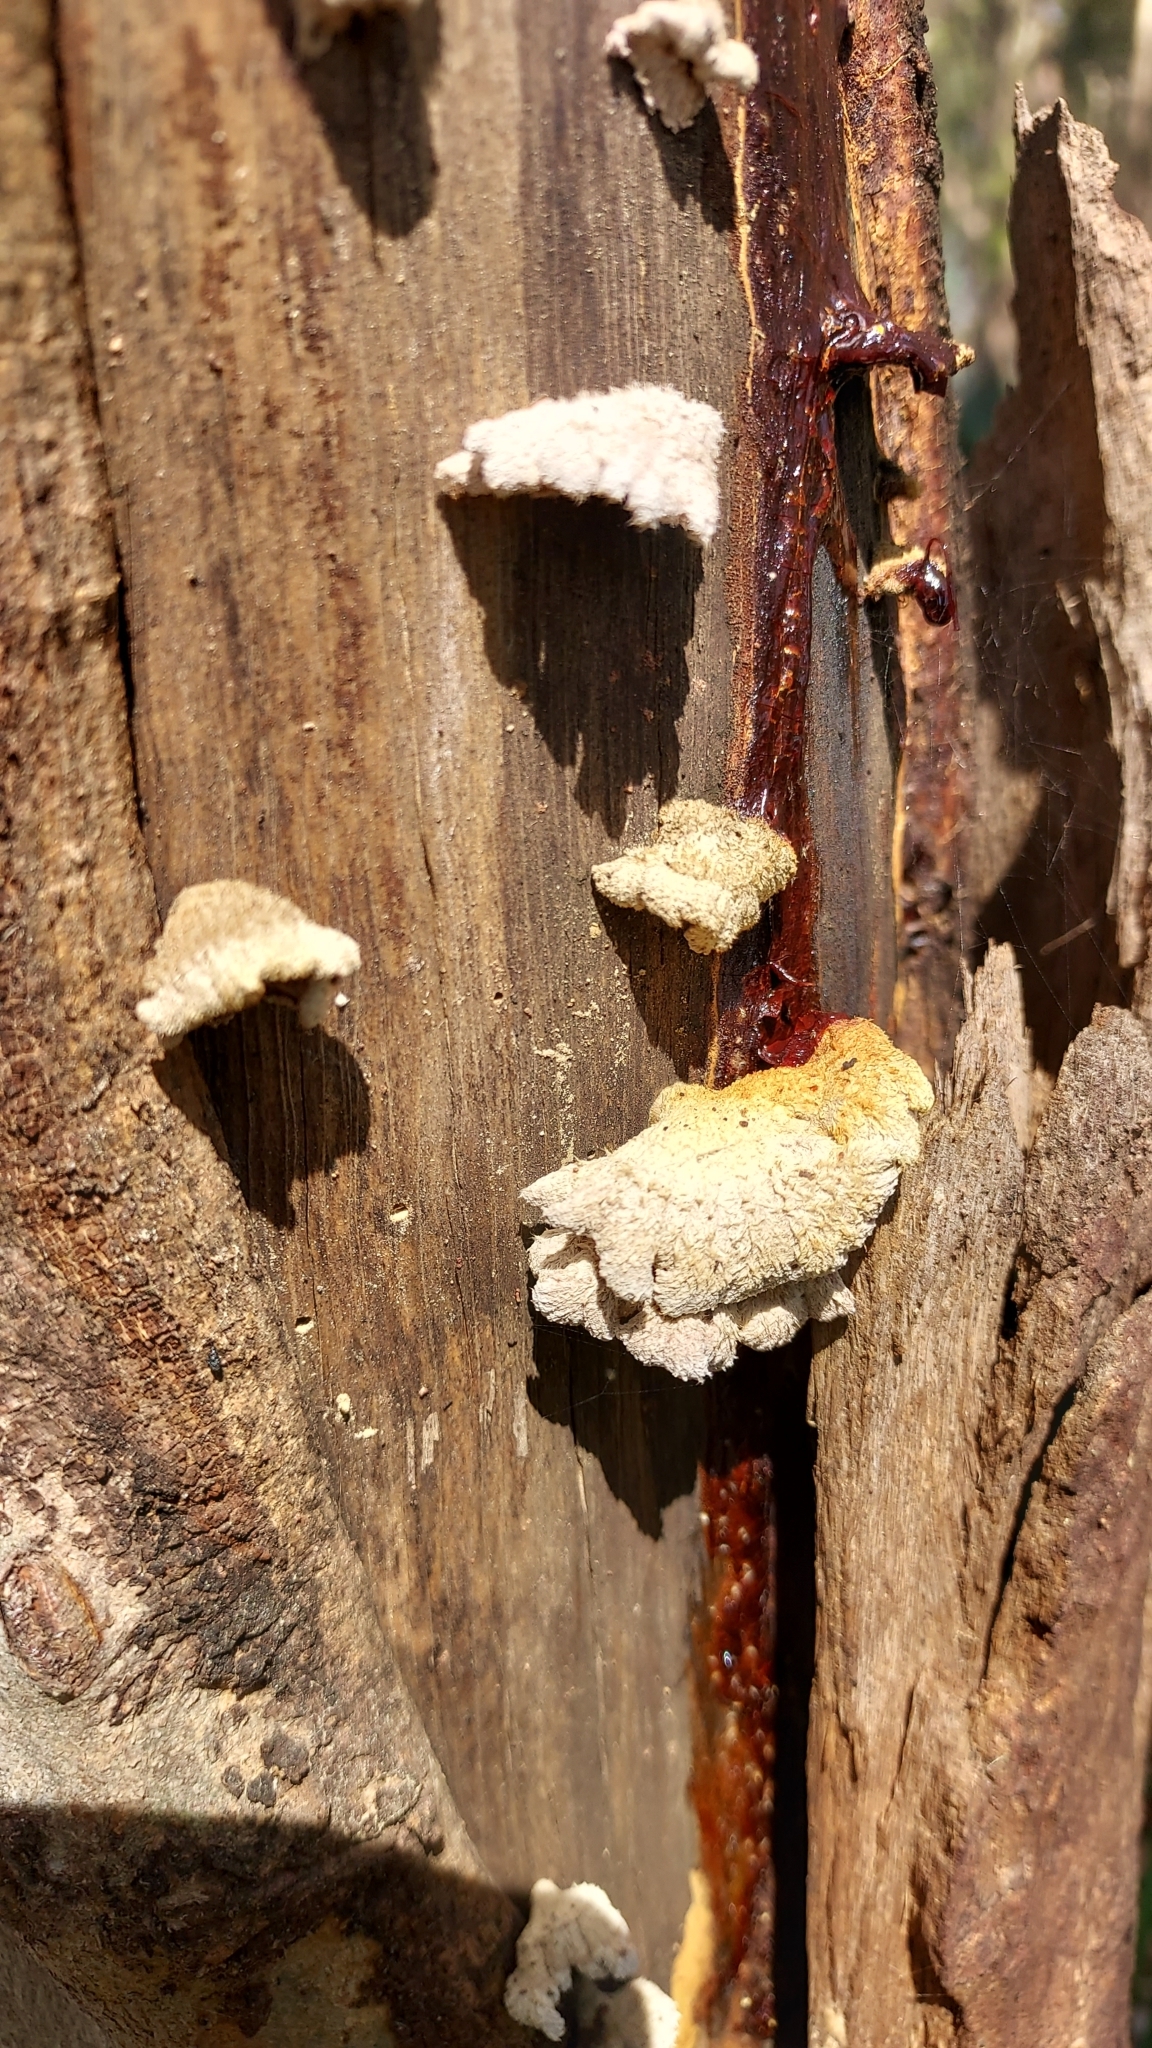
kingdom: Fungi
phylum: Basidiomycota
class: Agaricomycetes
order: Agaricales
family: Schizophyllaceae
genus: Schizophyllum
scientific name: Schizophyllum commune
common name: Common porecrust
